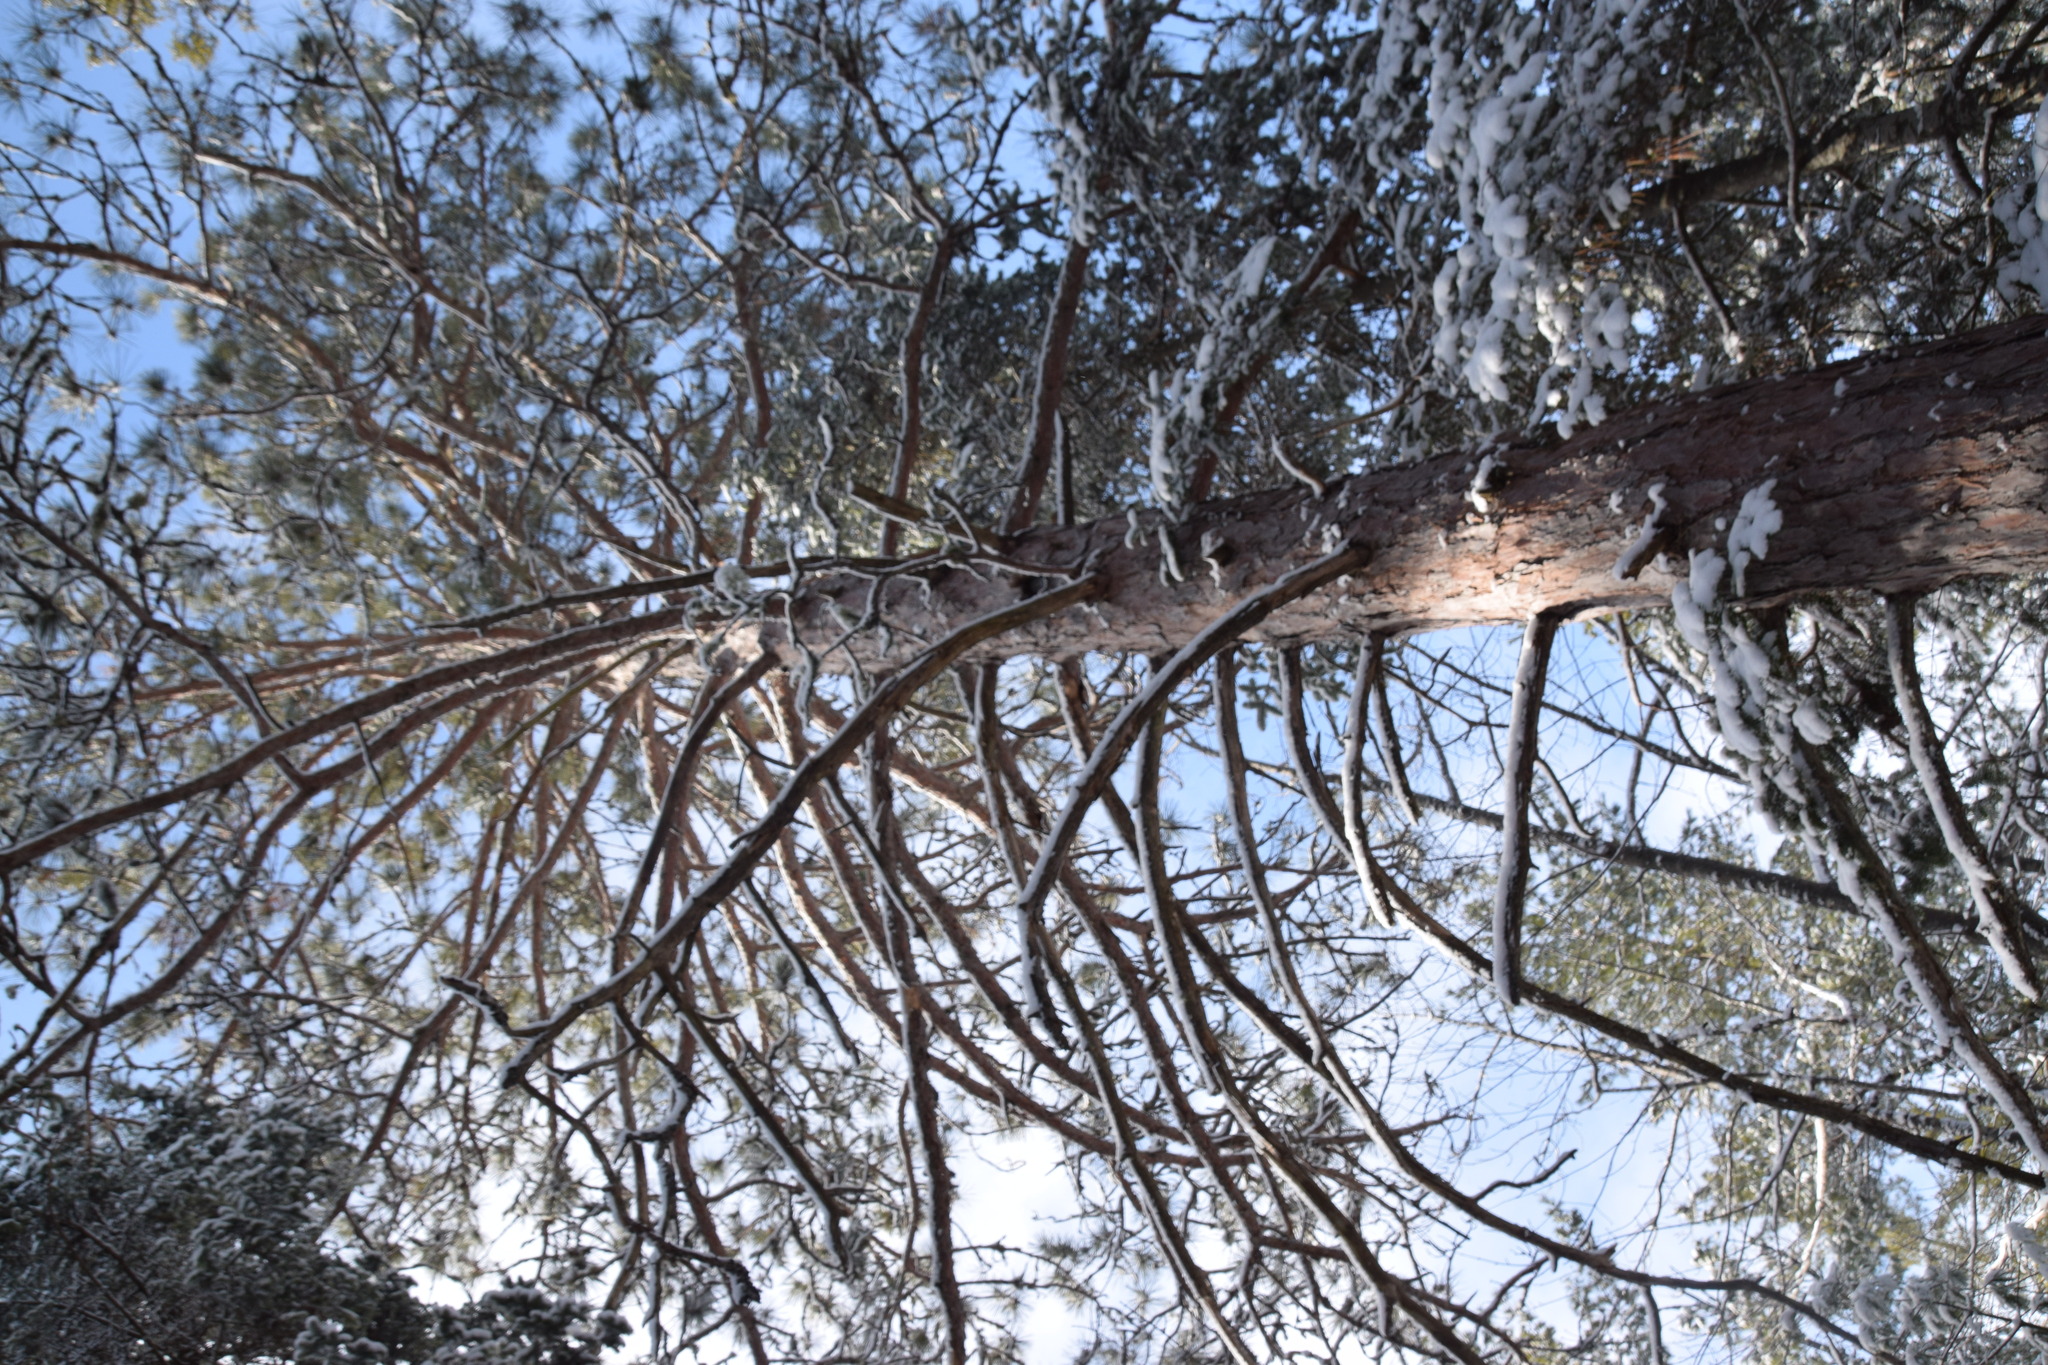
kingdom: Plantae
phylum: Tracheophyta
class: Pinopsida
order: Pinales
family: Pinaceae
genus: Pinus
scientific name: Pinus resinosa
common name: Norway pine
